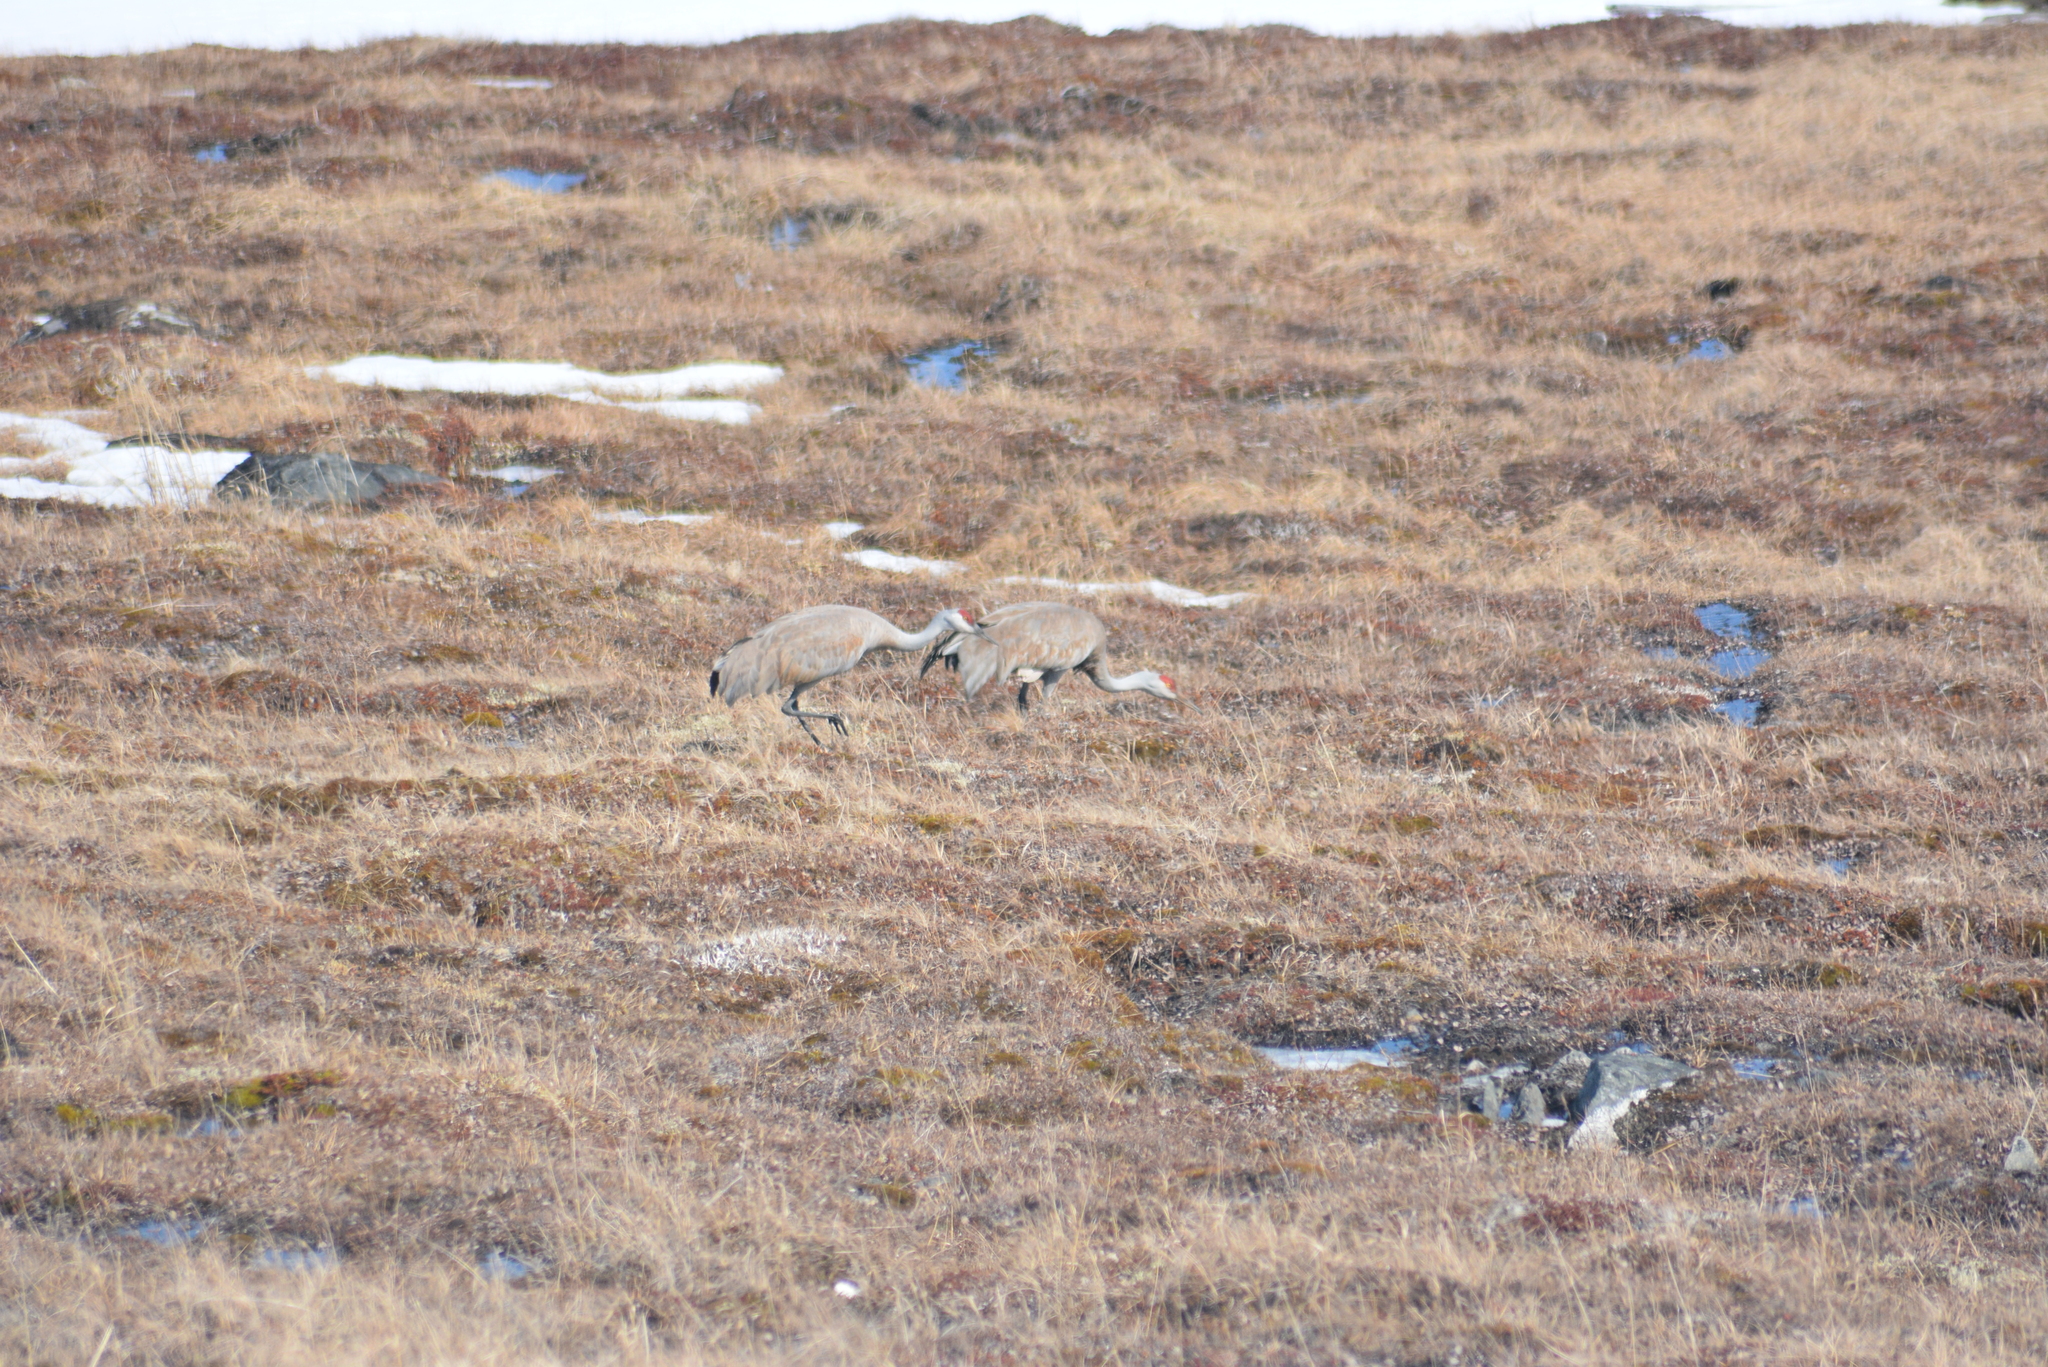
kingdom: Animalia
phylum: Chordata
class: Aves
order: Gruiformes
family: Gruidae
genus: Grus
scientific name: Grus canadensis
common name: Sandhill crane
